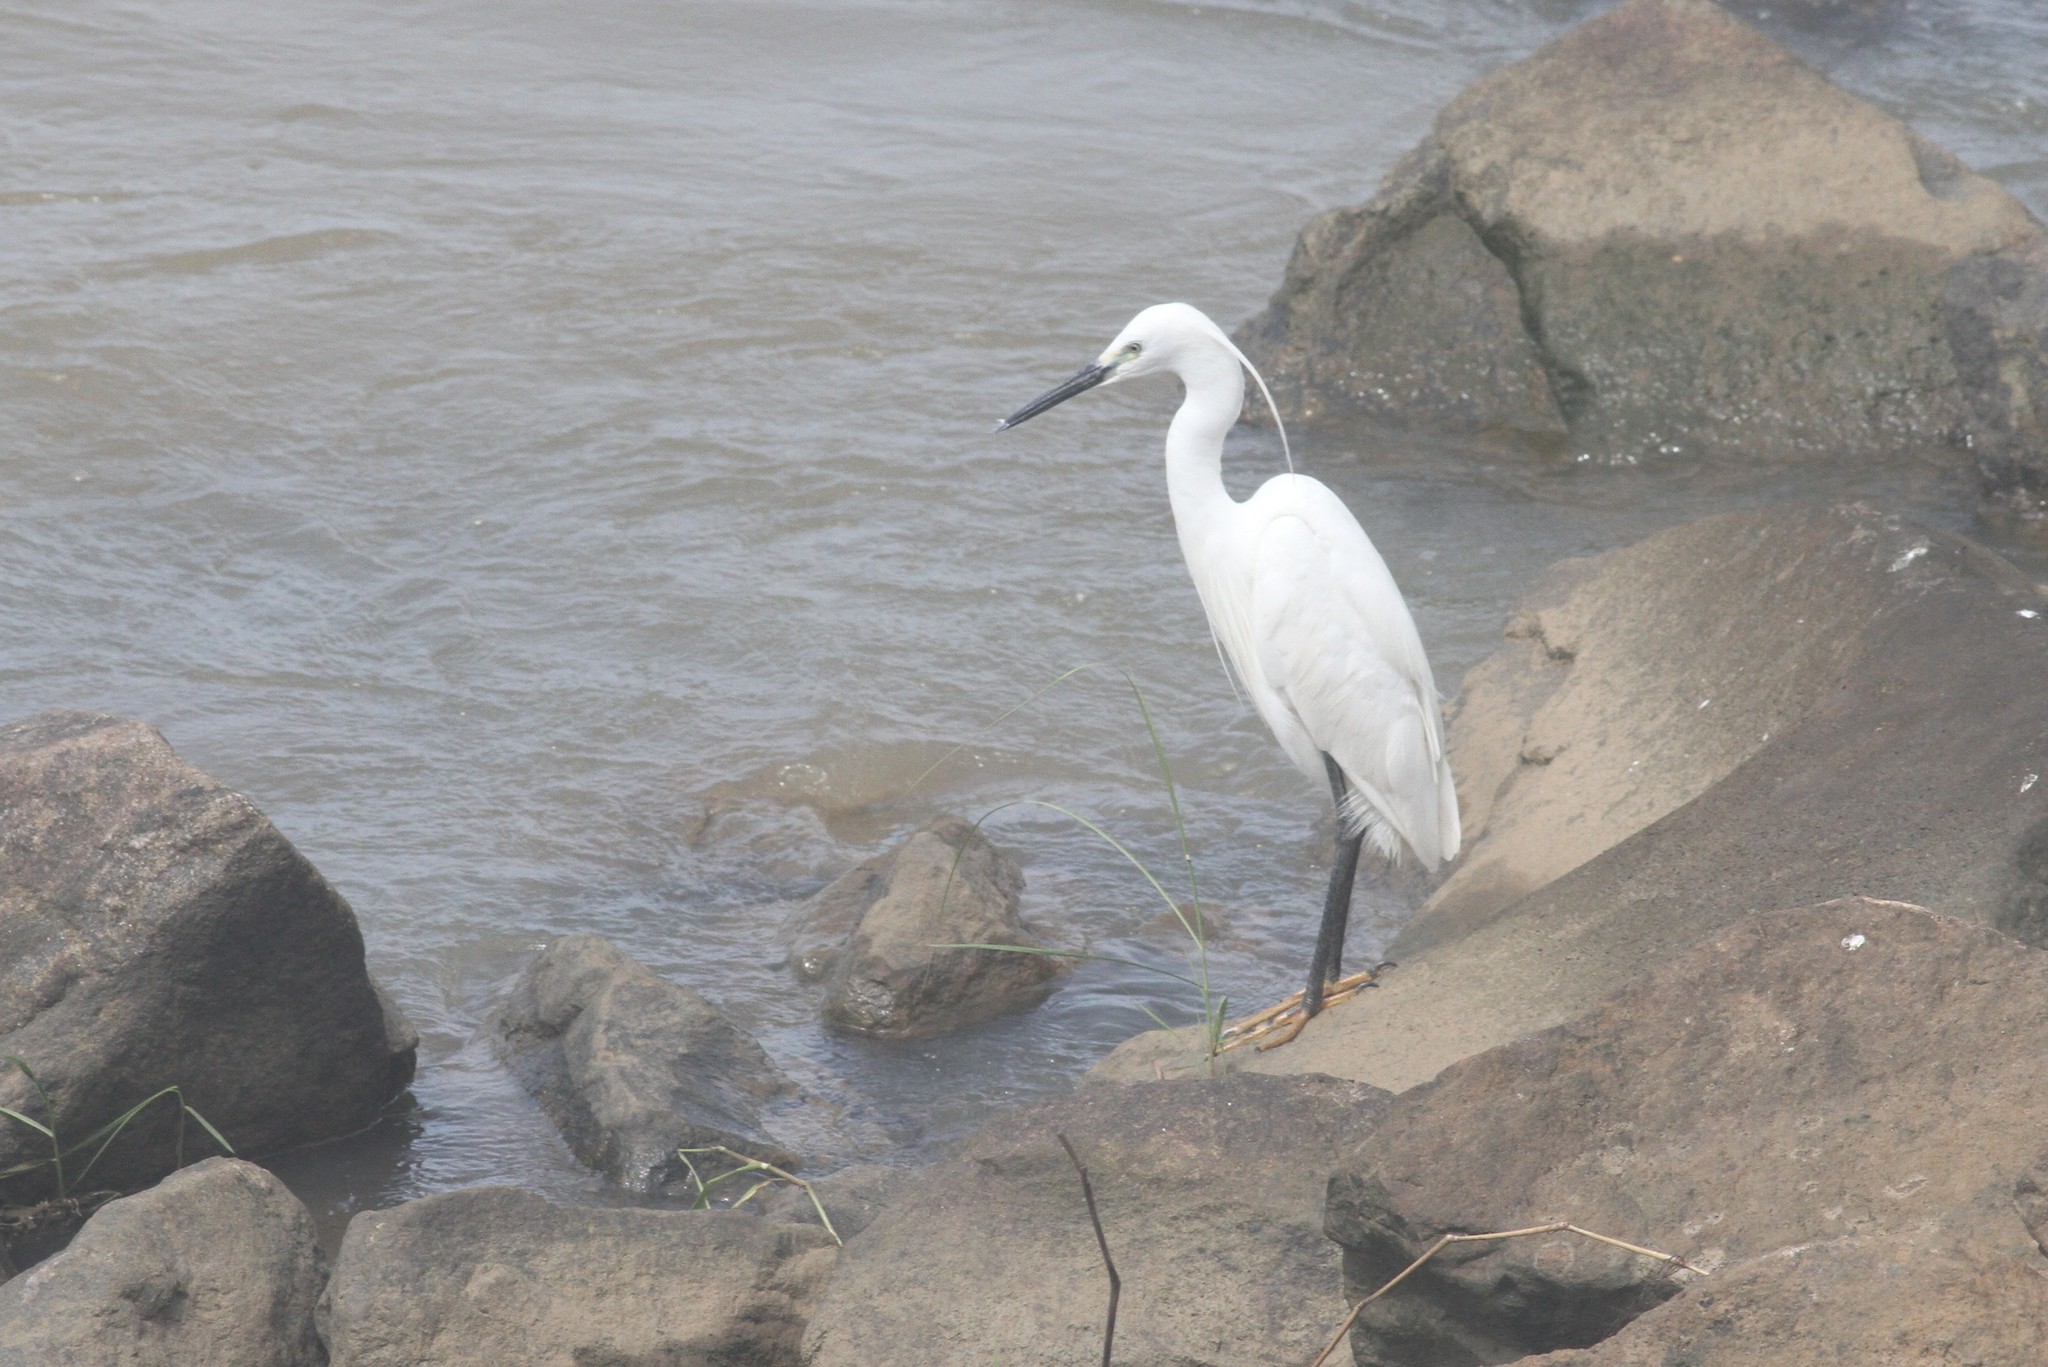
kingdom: Animalia
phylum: Chordata
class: Aves
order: Pelecaniformes
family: Ardeidae
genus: Egretta
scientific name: Egretta garzetta
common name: Little egret
